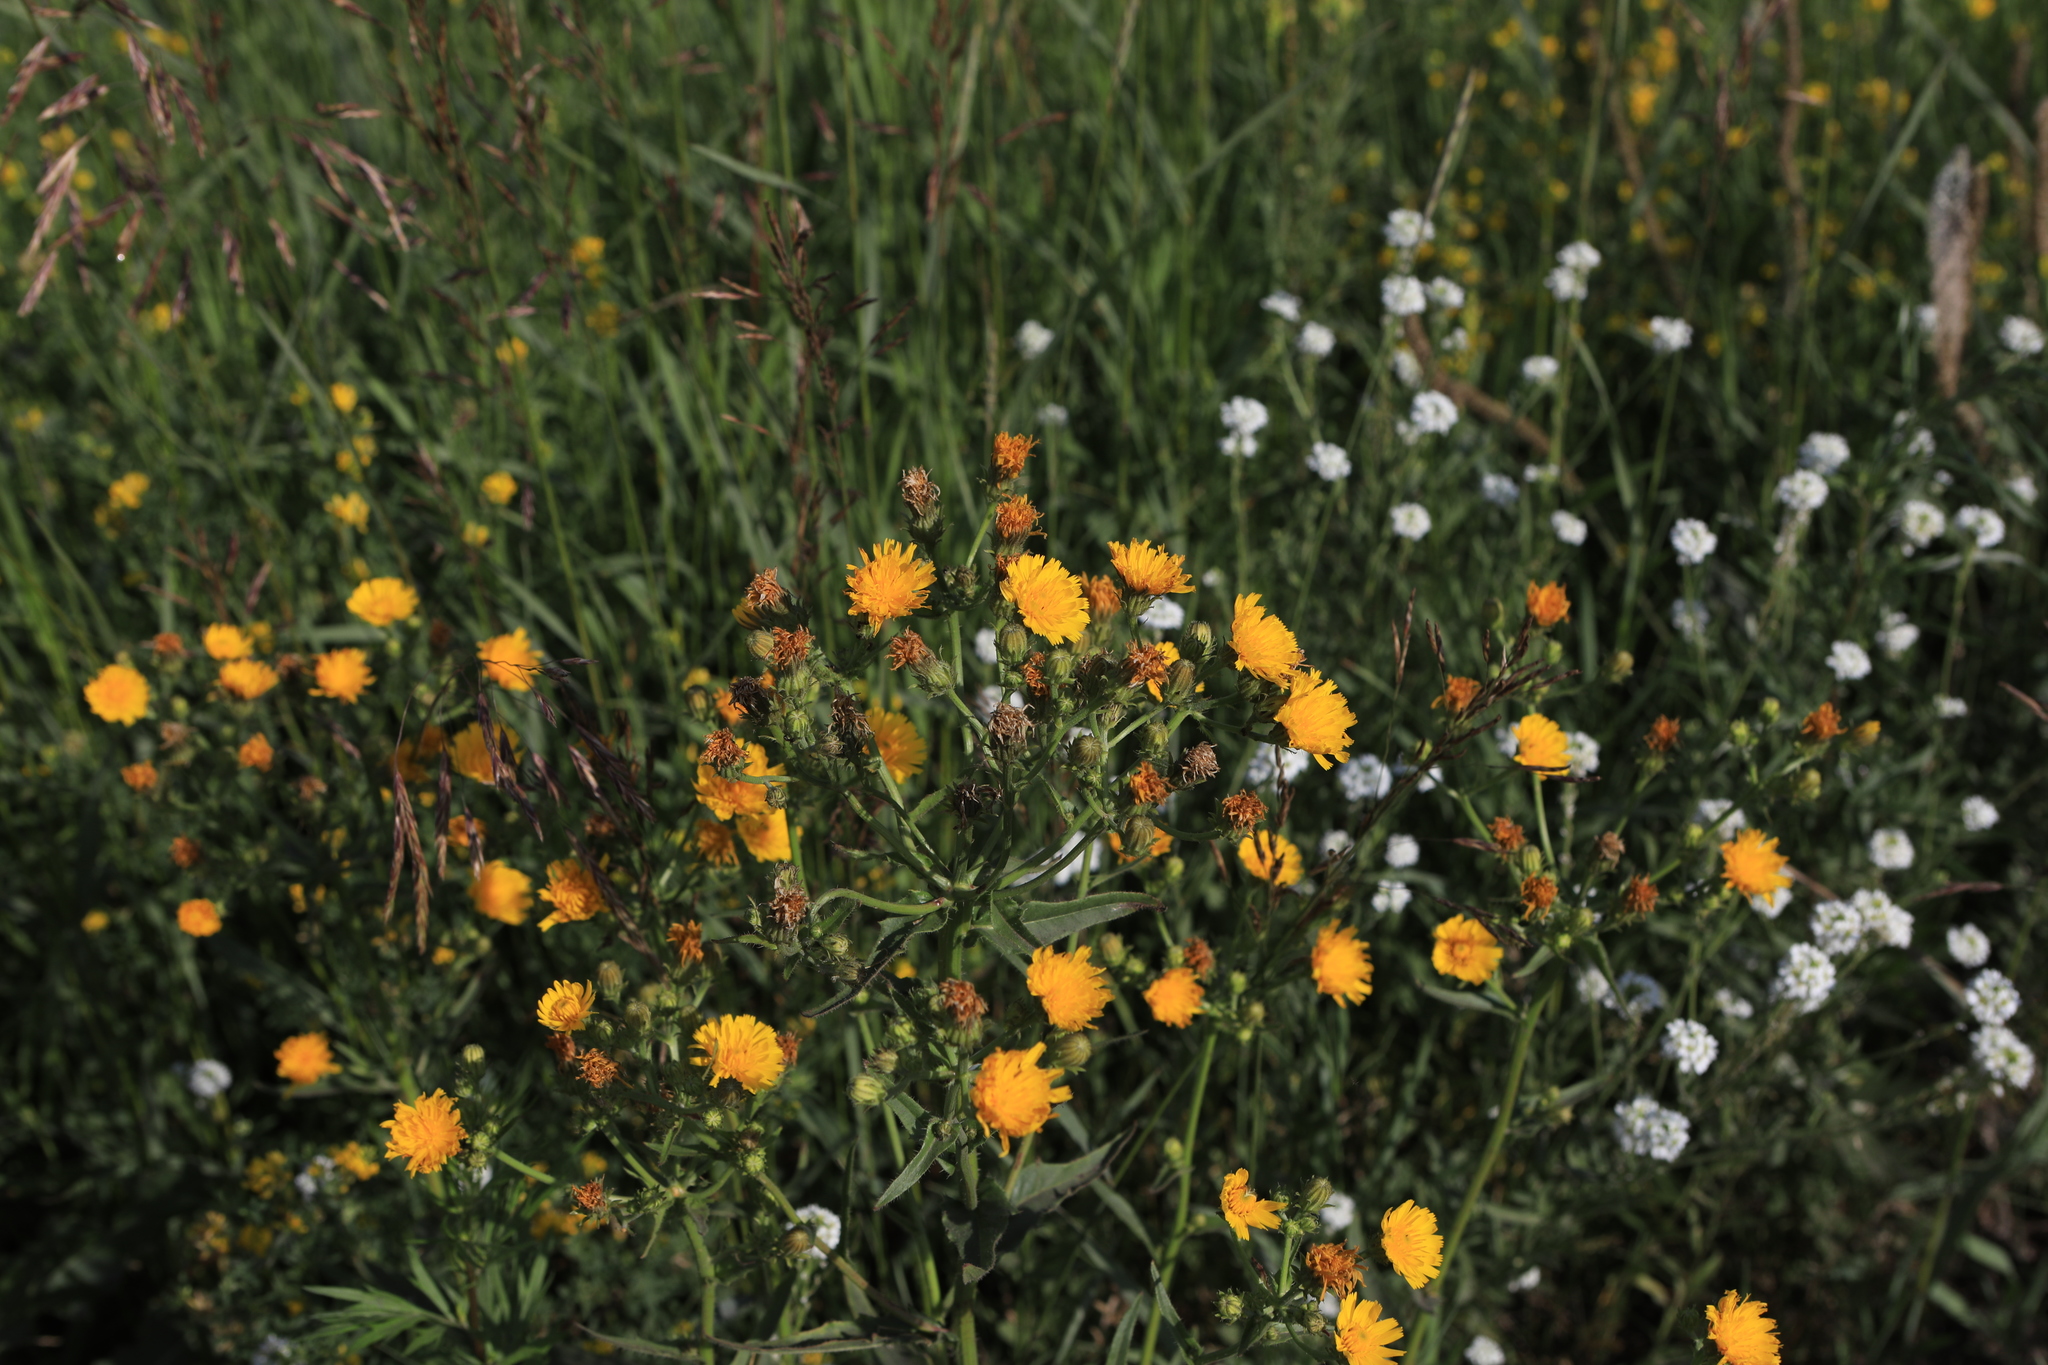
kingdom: Plantae
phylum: Tracheophyta
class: Magnoliopsida
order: Asterales
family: Asteraceae
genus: Picris
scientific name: Picris hieracioides
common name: Hawkweed oxtongue
